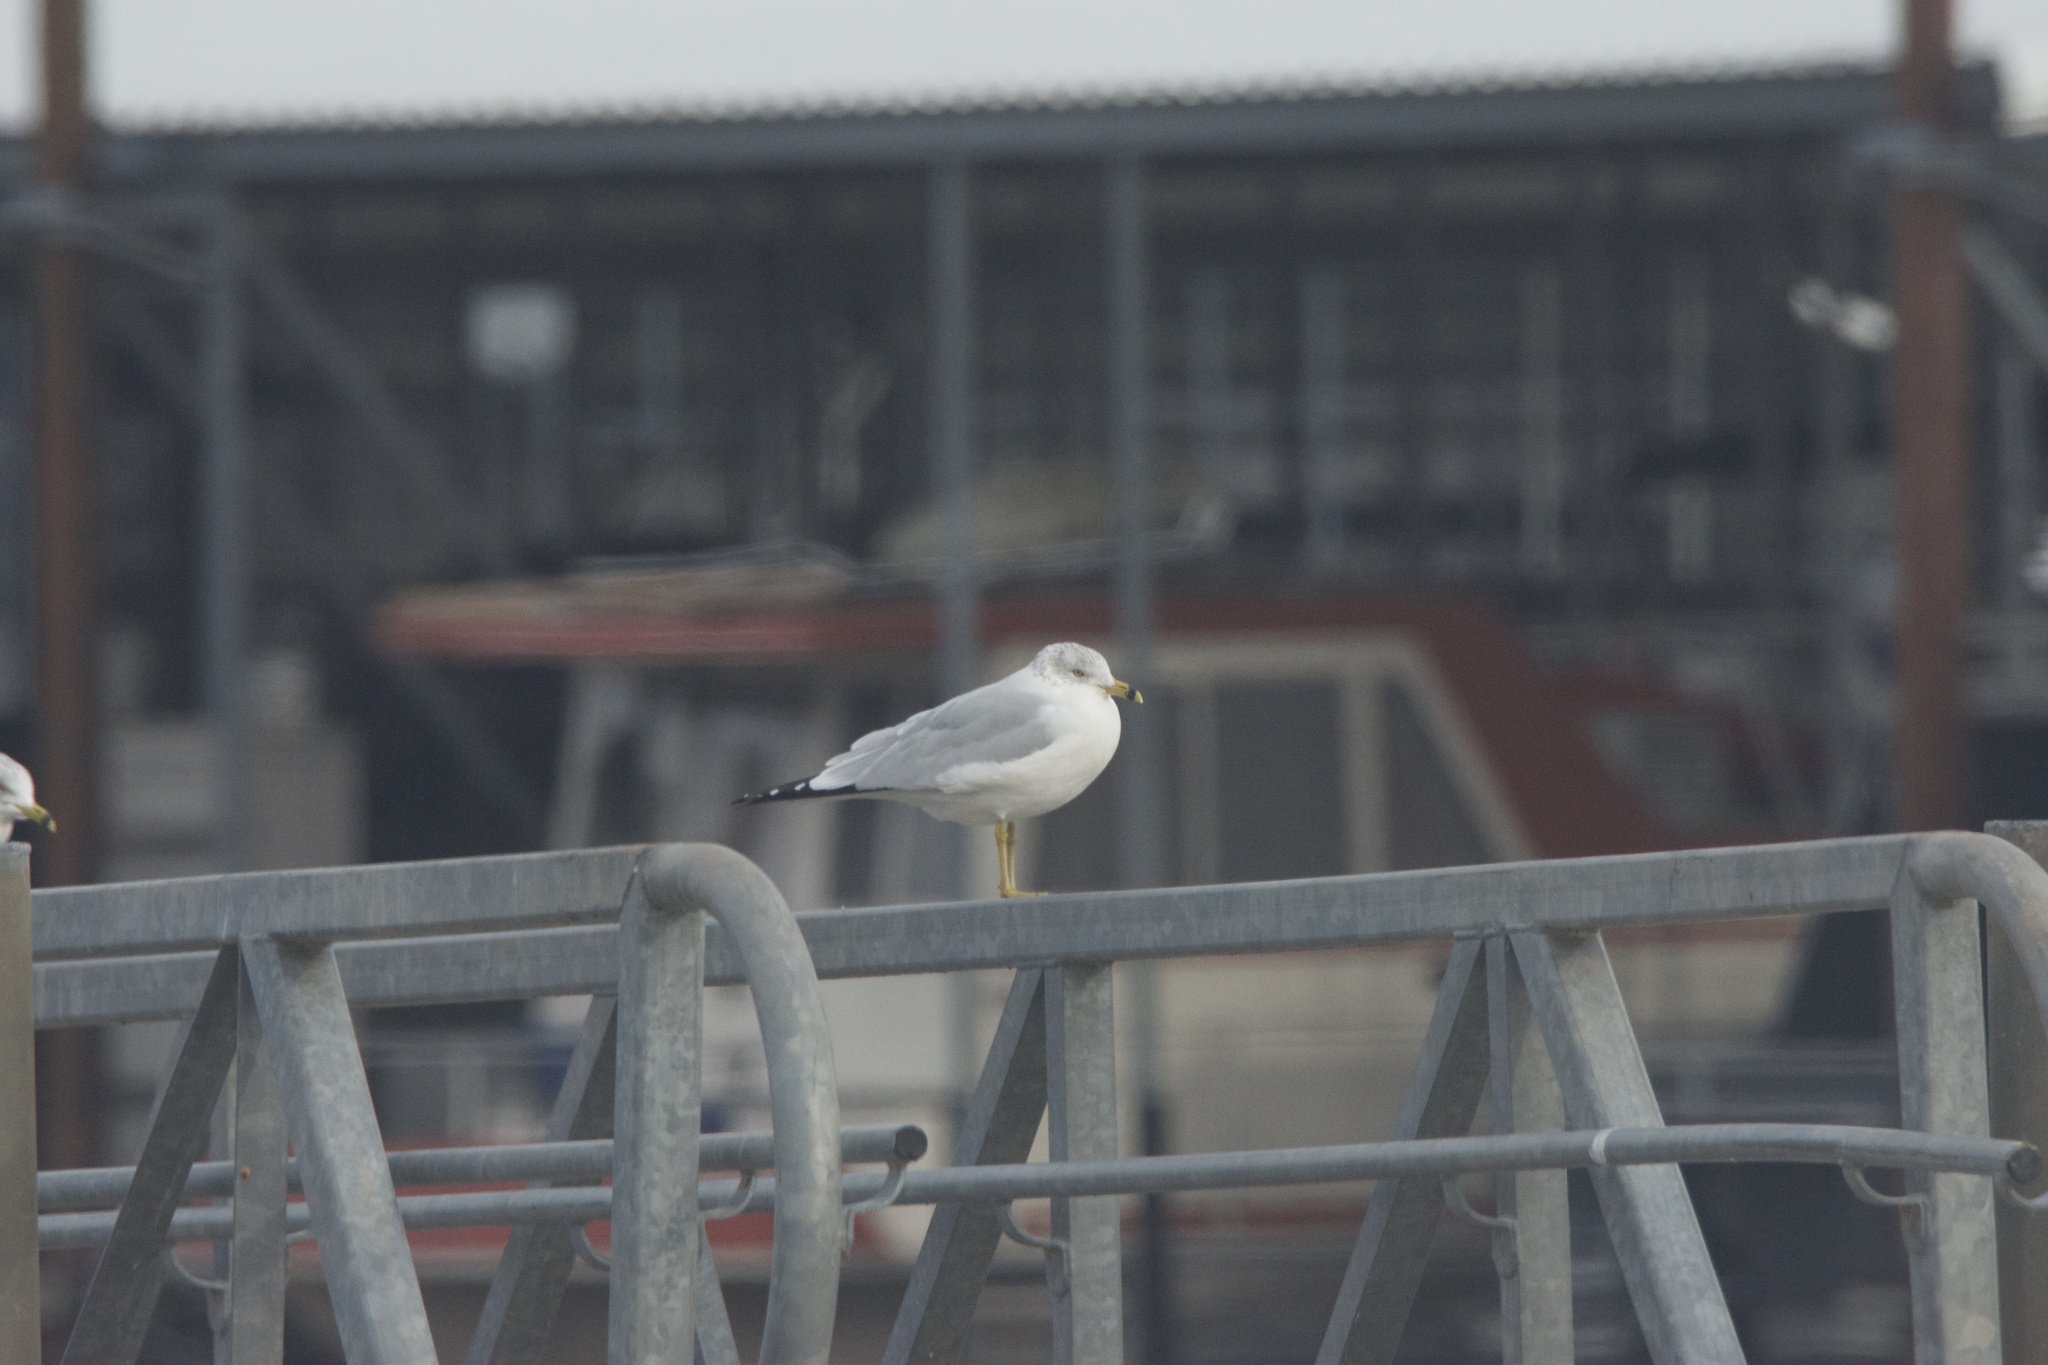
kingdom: Animalia
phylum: Chordata
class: Aves
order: Charadriiformes
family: Laridae
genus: Larus
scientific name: Larus delawarensis
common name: Ring-billed gull
